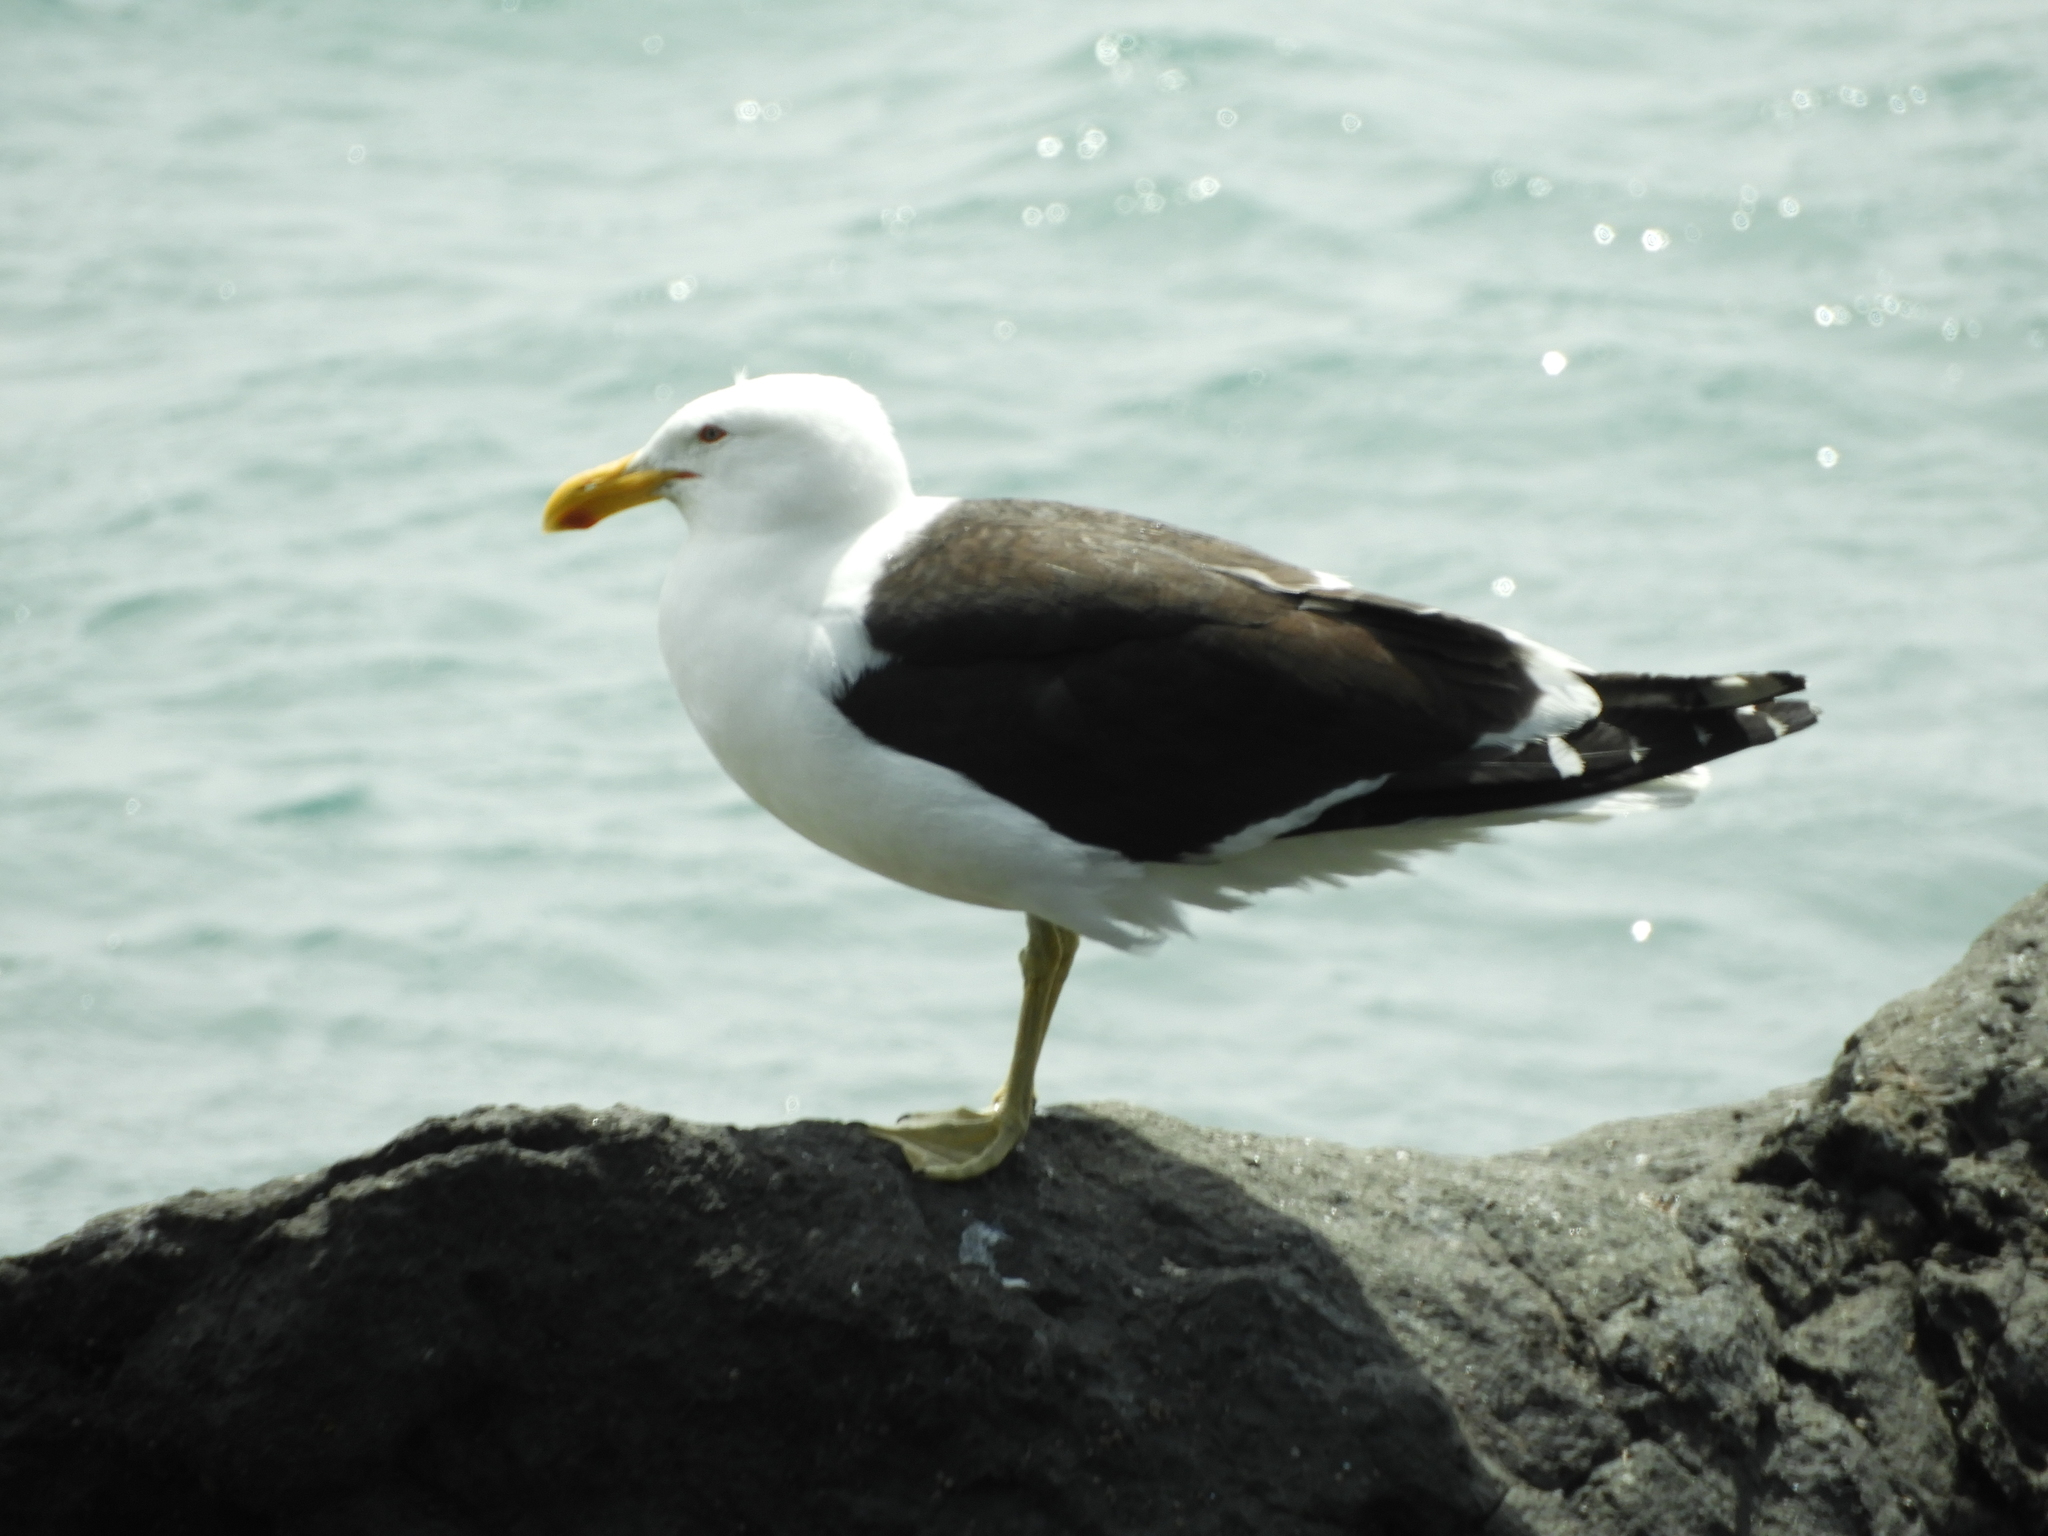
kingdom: Animalia
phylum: Chordata
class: Aves
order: Charadriiformes
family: Laridae
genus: Larus
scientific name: Larus dominicanus
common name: Kelp gull
